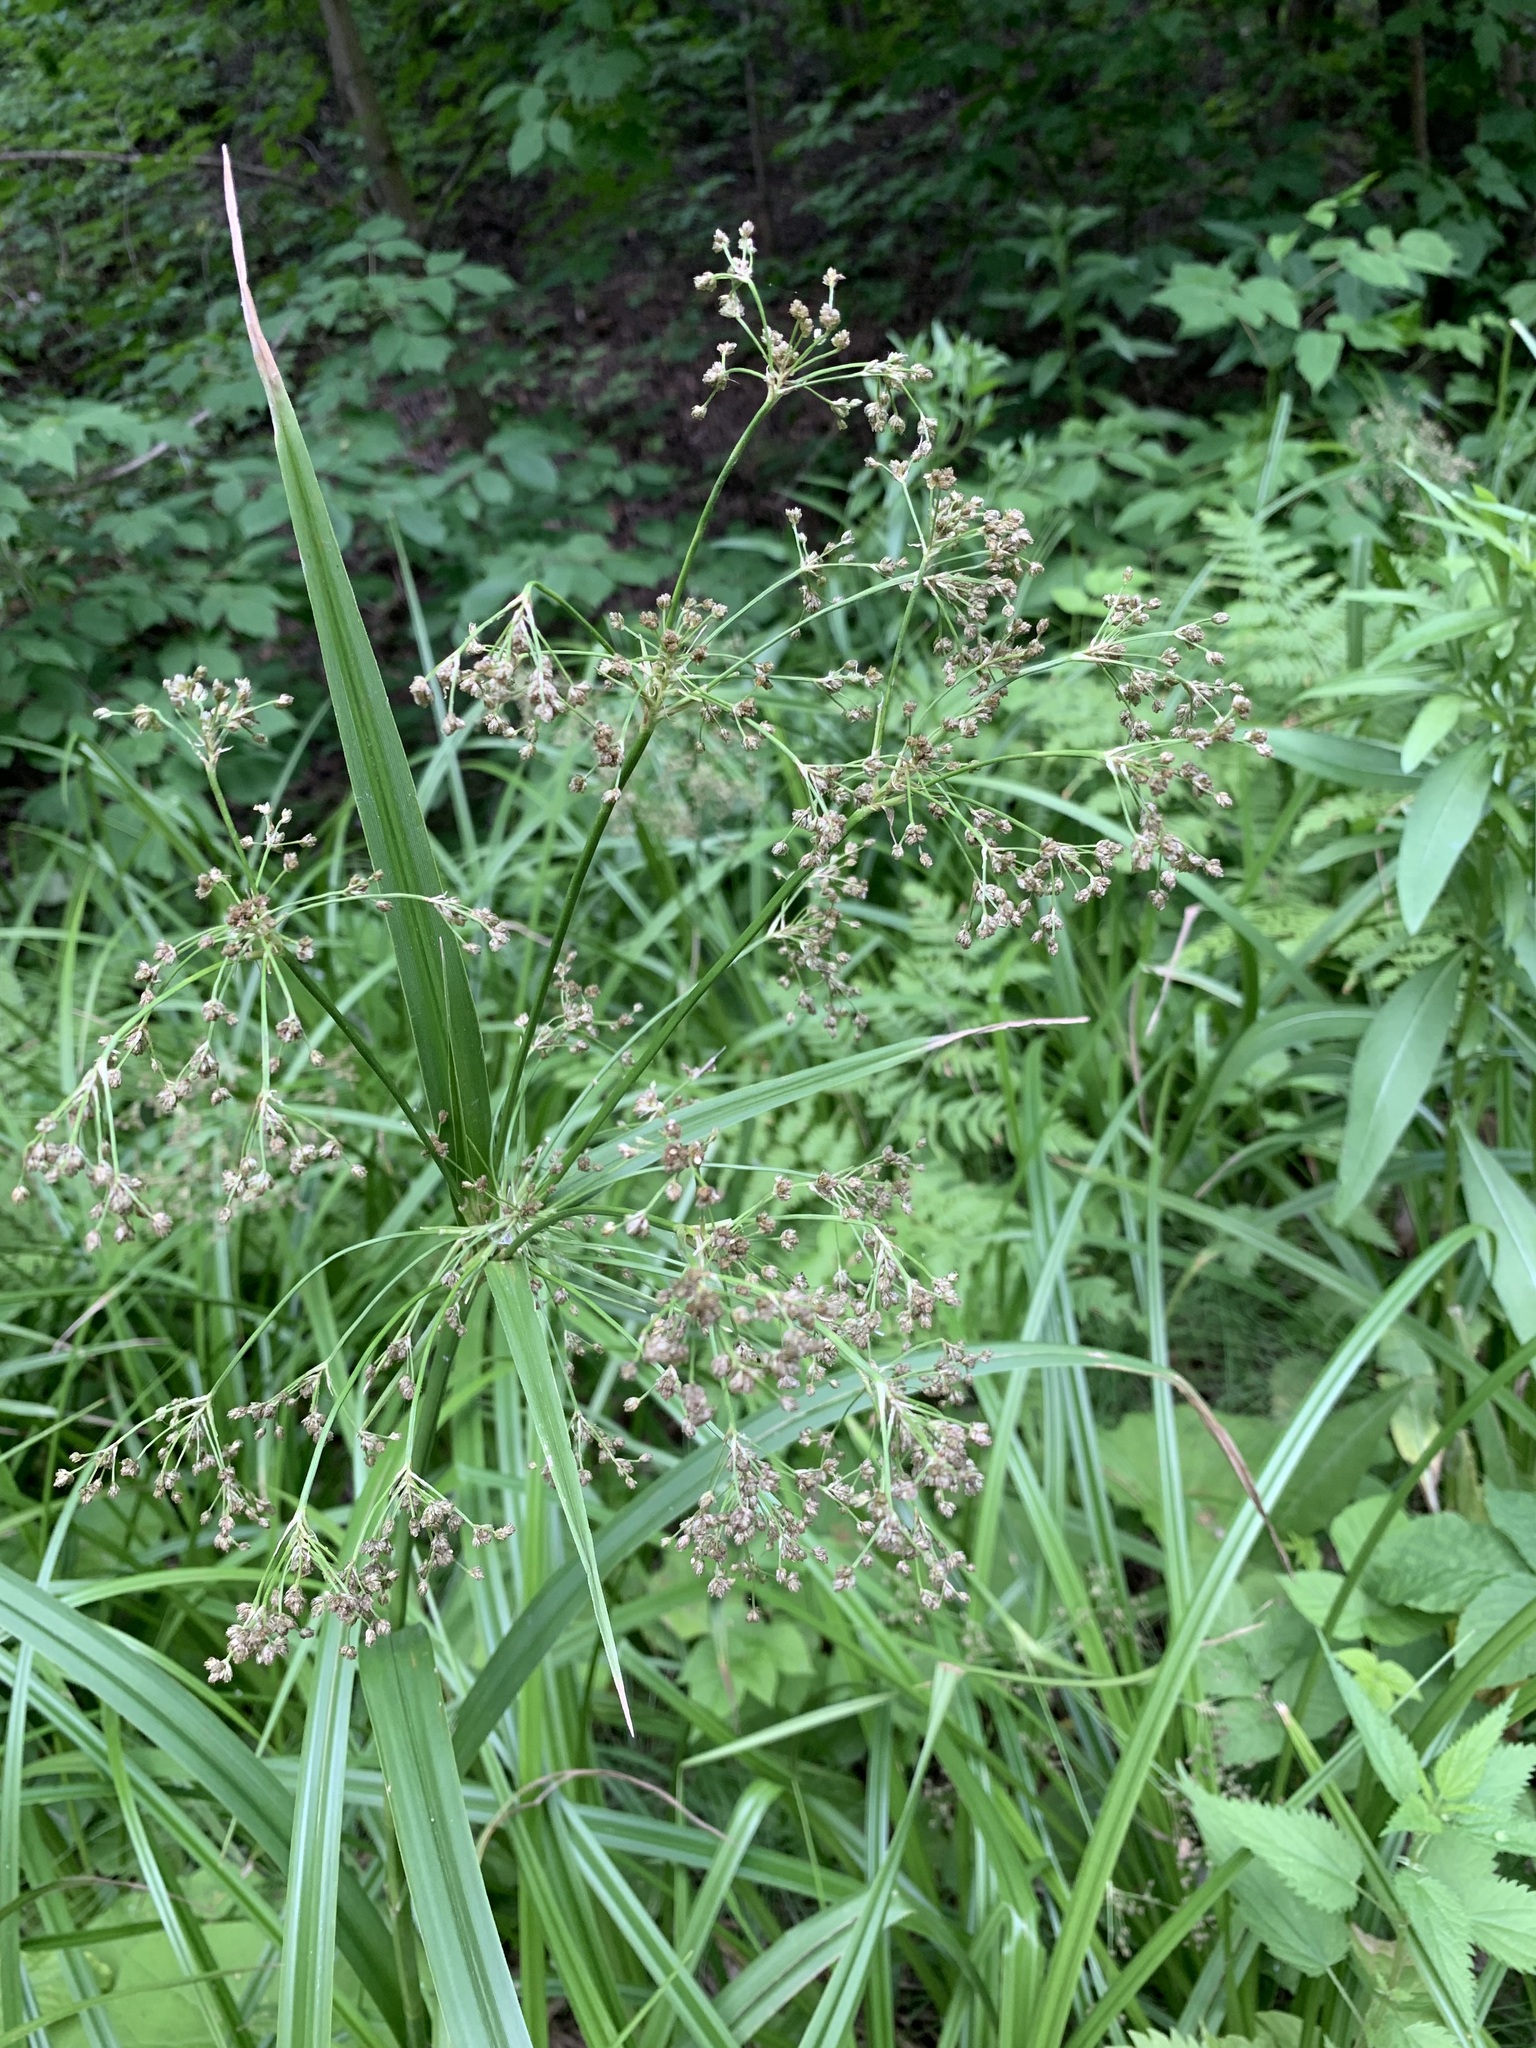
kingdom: Plantae
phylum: Tracheophyta
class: Liliopsida
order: Poales
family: Cyperaceae
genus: Scirpus
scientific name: Scirpus sylvaticus
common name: Wood club-rush
